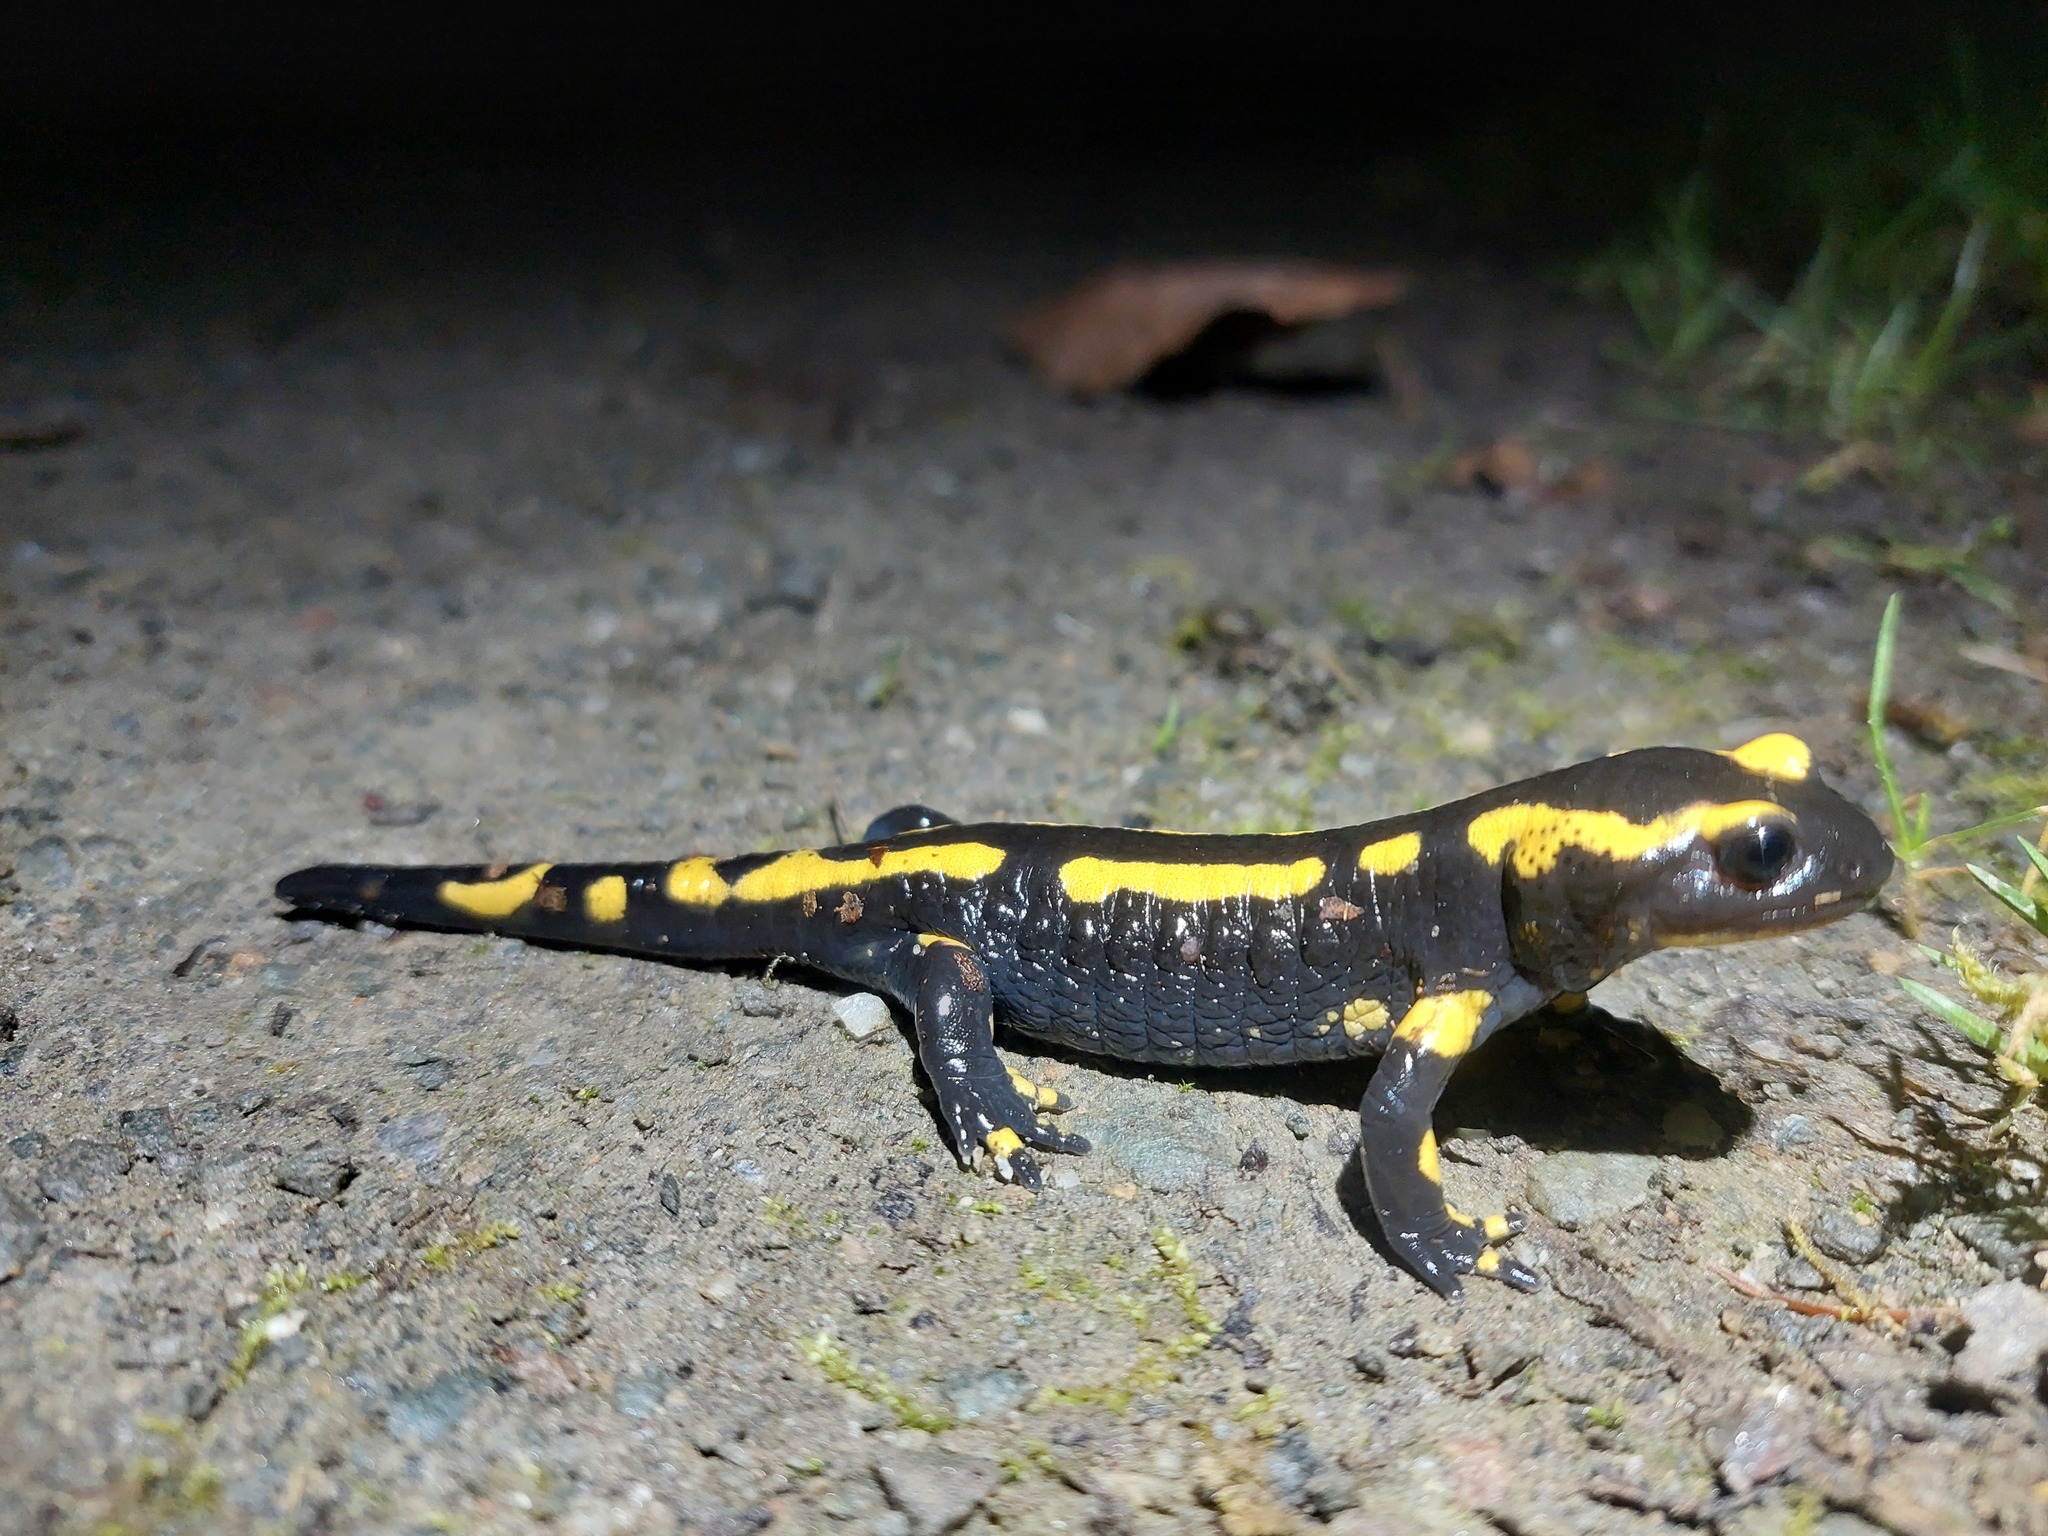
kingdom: Animalia
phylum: Chordata
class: Amphibia
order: Caudata
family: Salamandridae
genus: Salamandra
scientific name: Salamandra salamandra
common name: Fire salamander
